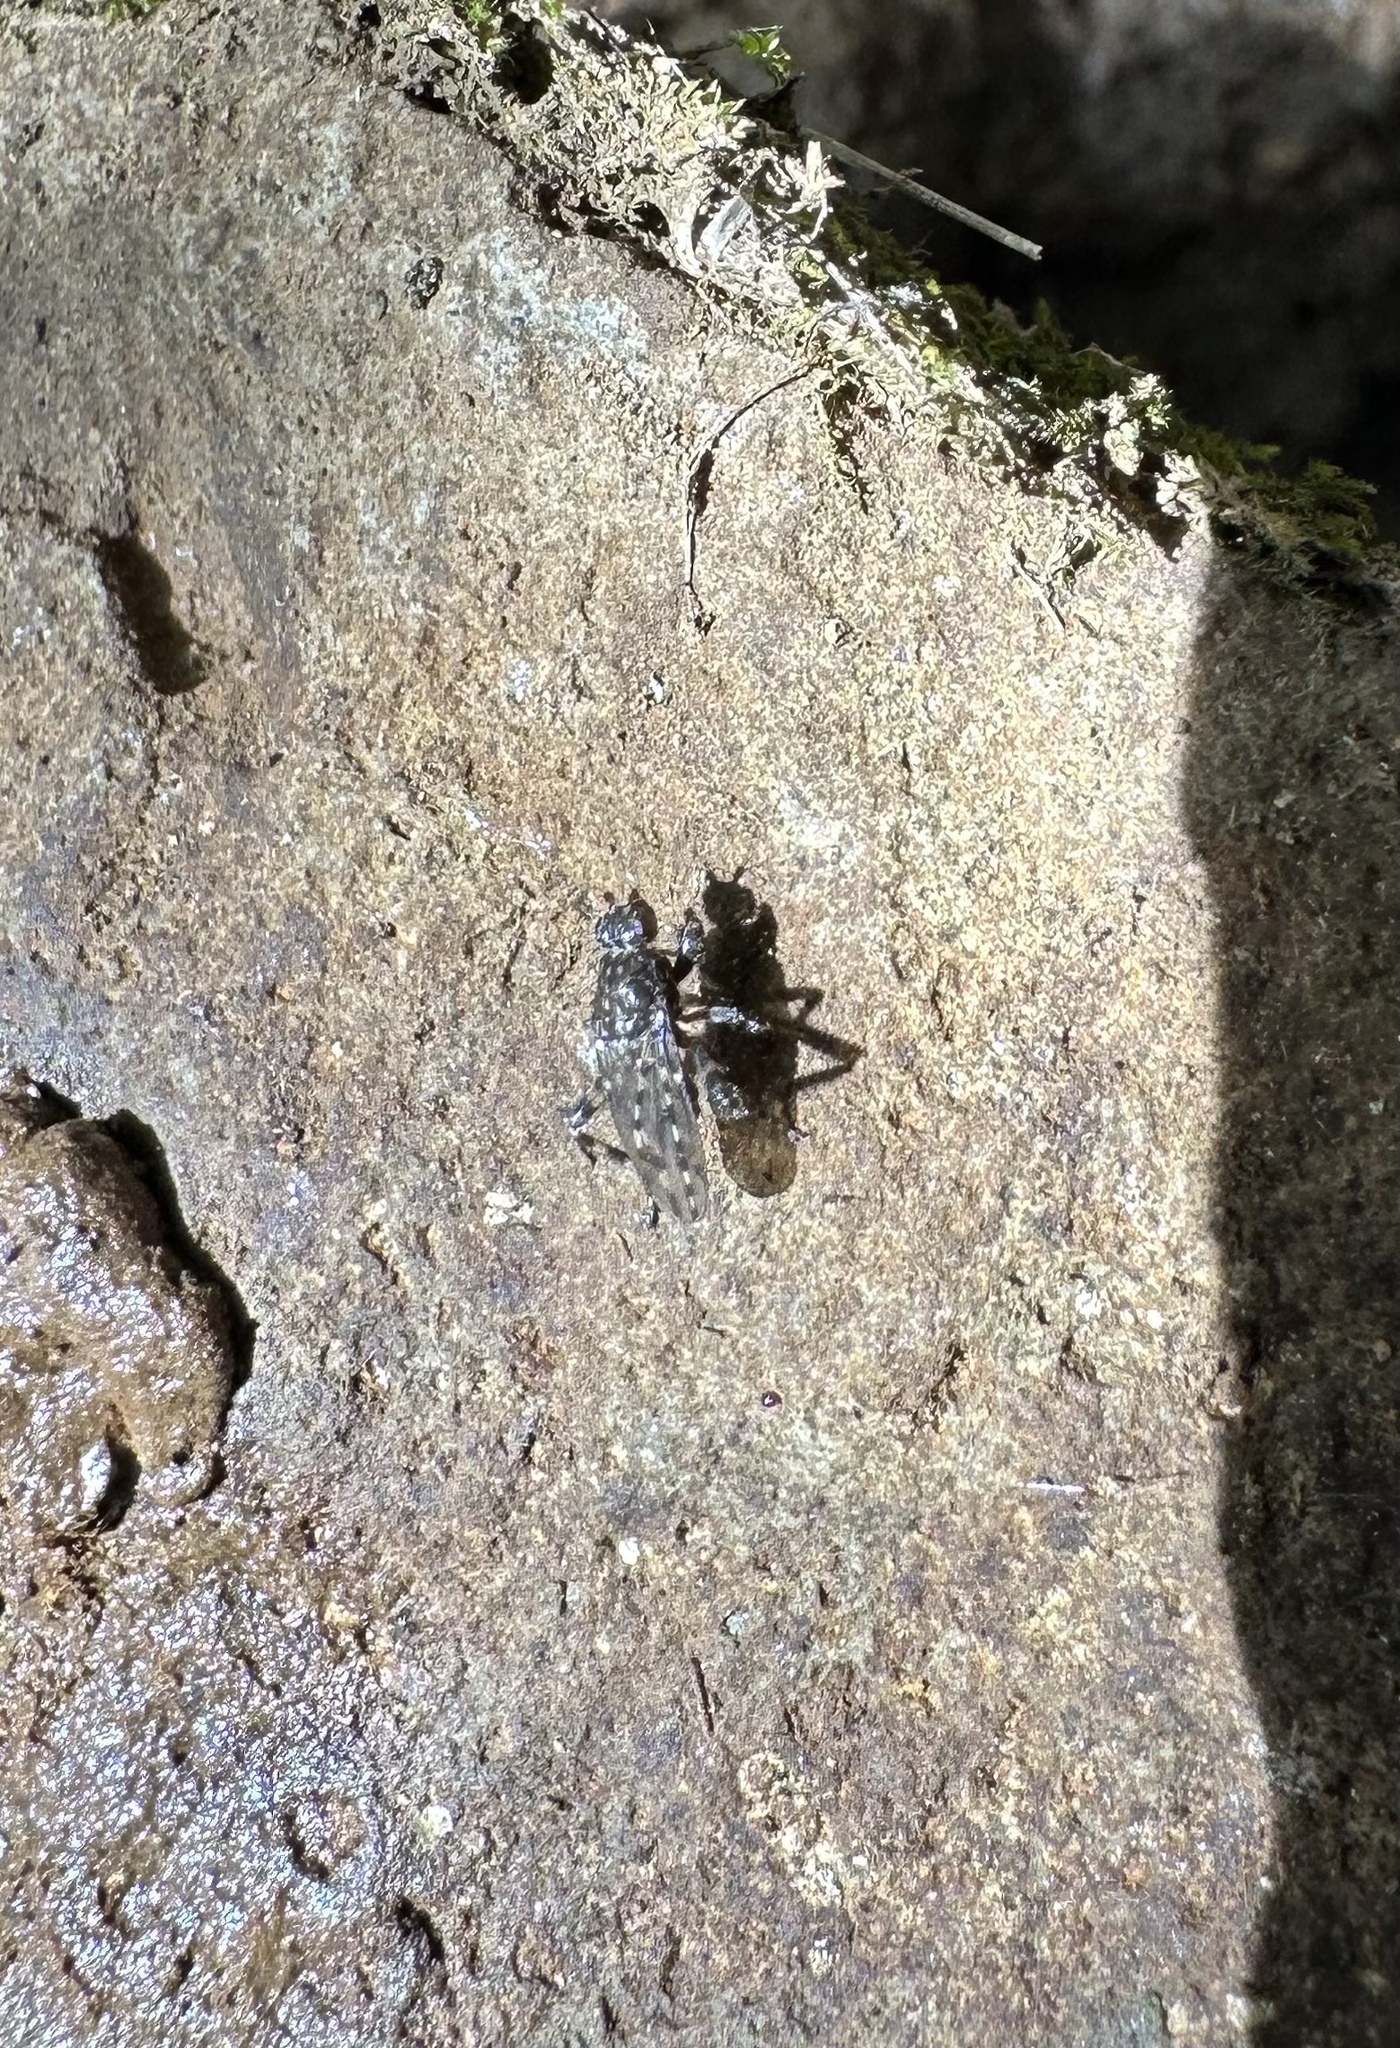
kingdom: Animalia
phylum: Arthropoda
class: Insecta
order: Diptera
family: Sphaeroceridae
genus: Maculantrops
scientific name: Maculantrops hirtipes
